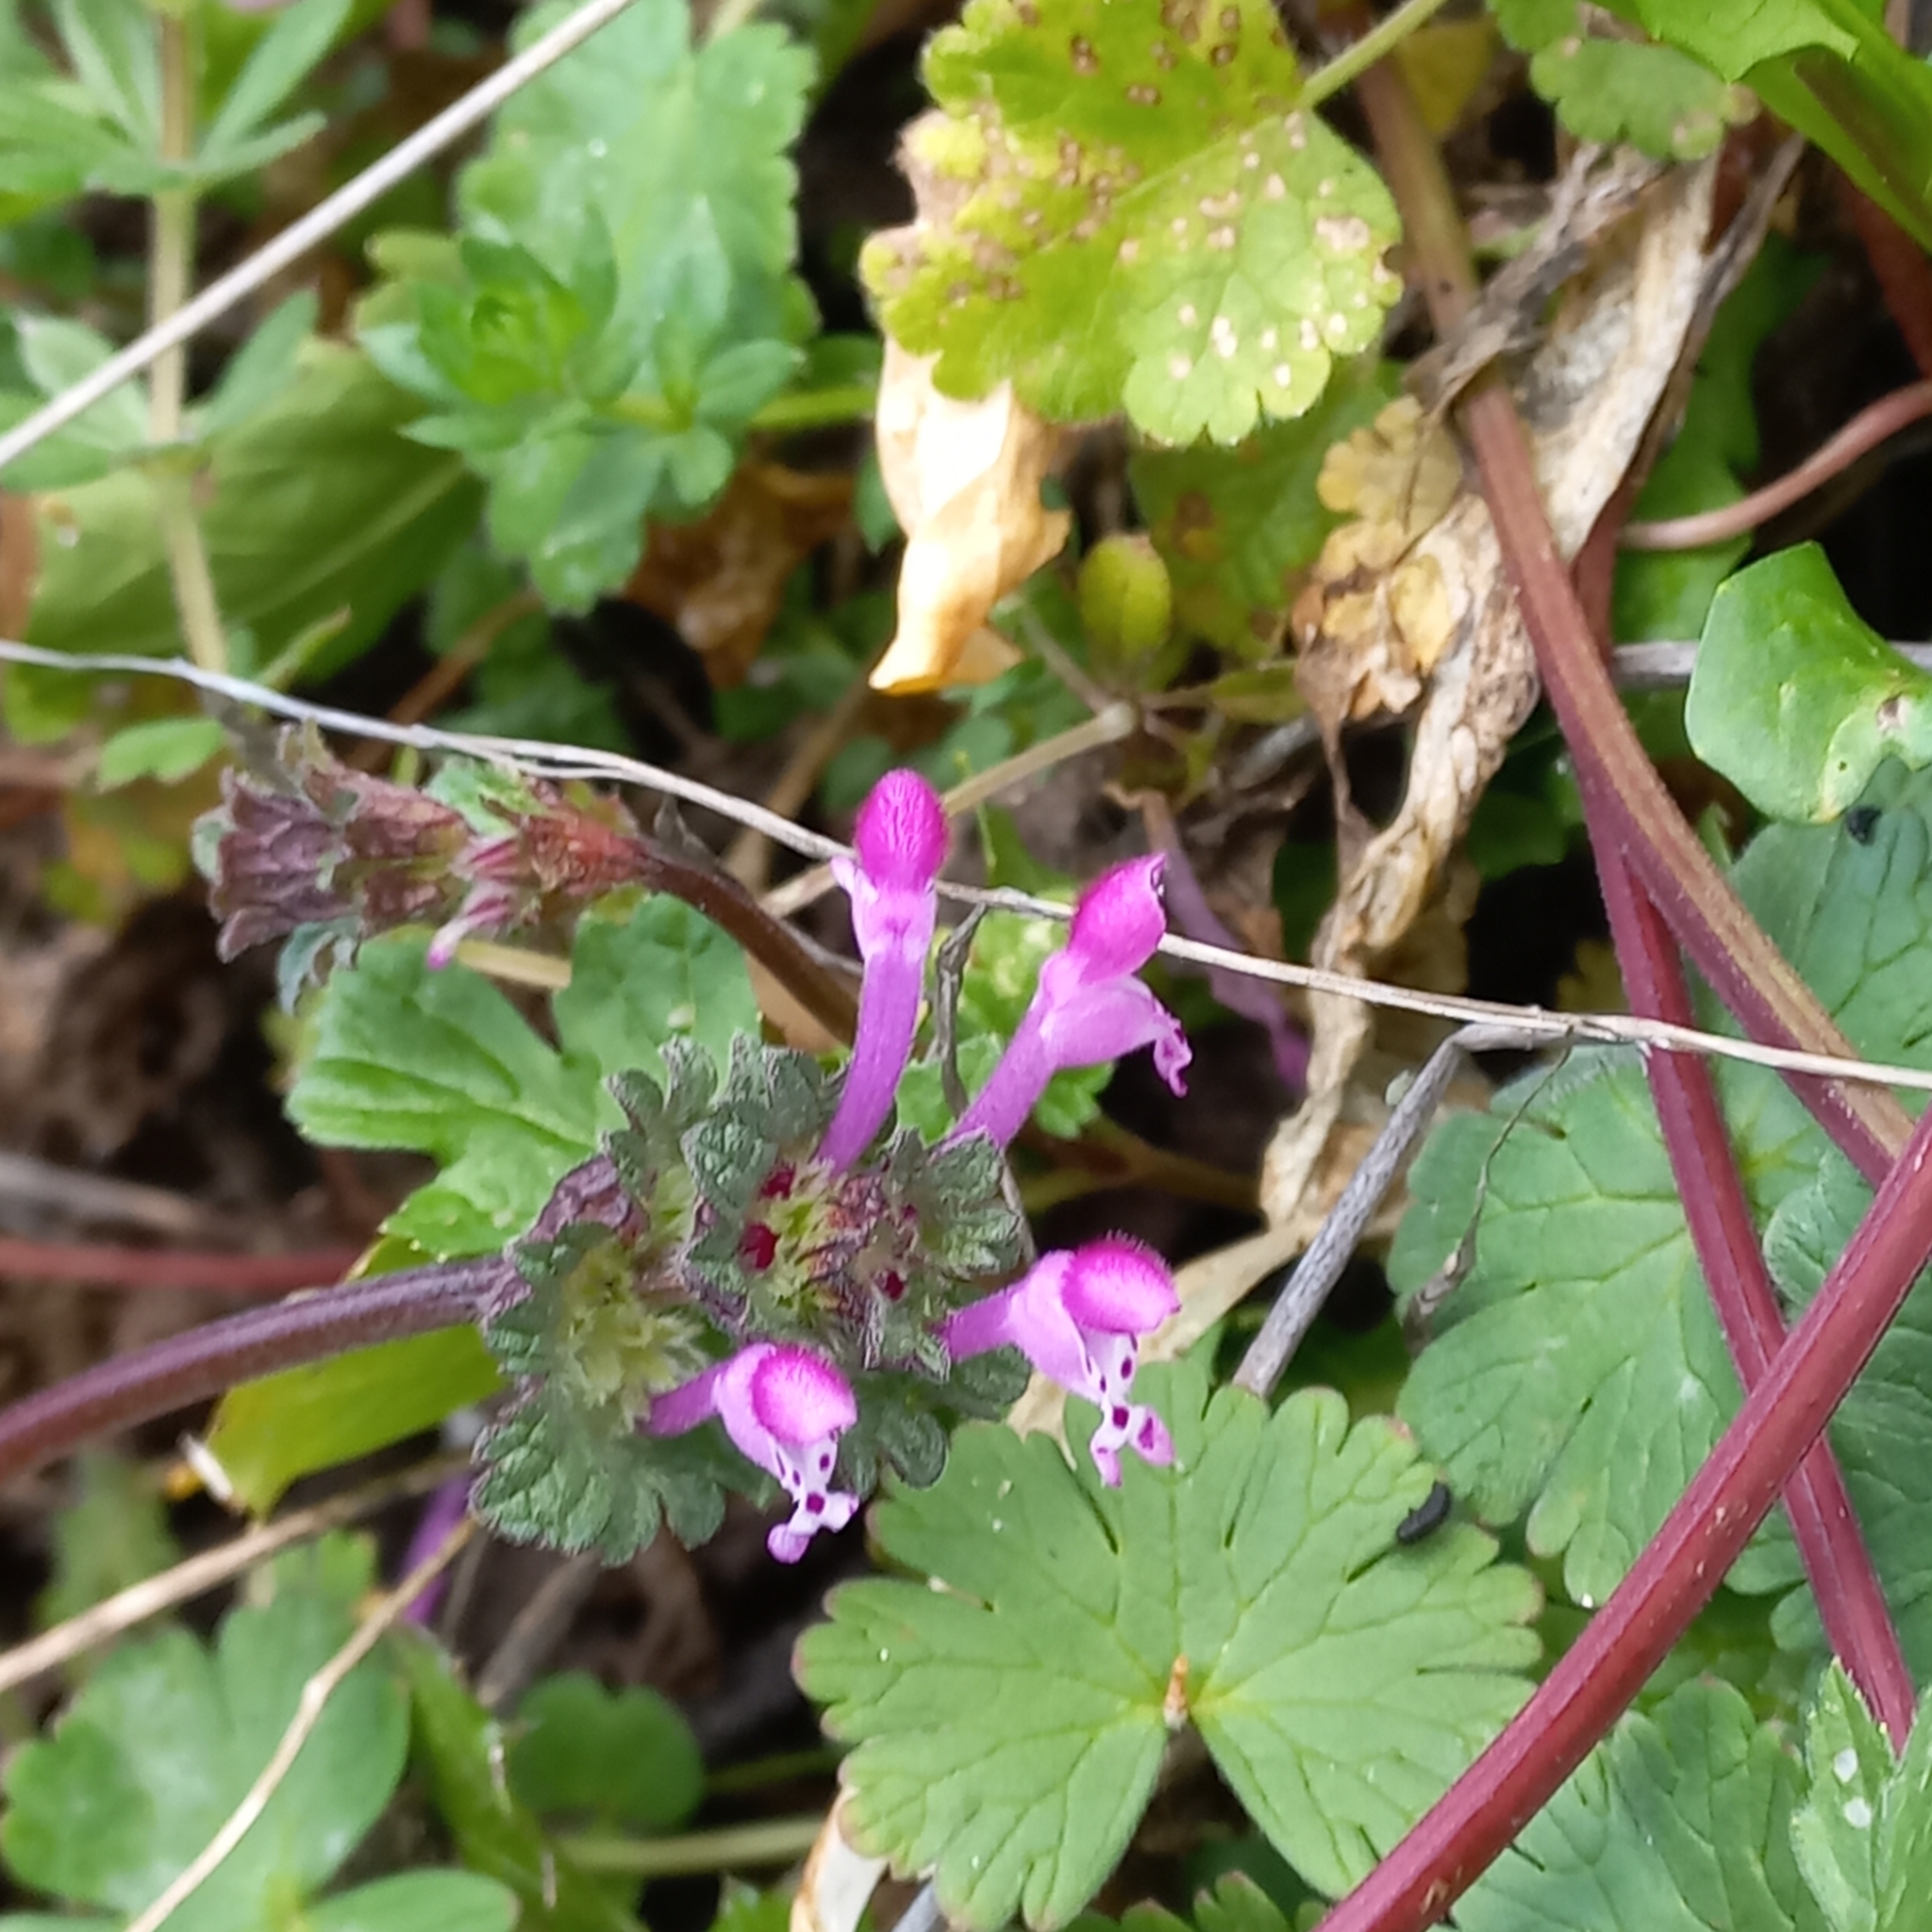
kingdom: Plantae
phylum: Tracheophyta
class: Magnoliopsida
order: Lamiales
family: Lamiaceae
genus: Lamium
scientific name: Lamium amplexicaule
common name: Henbit dead-nettle
